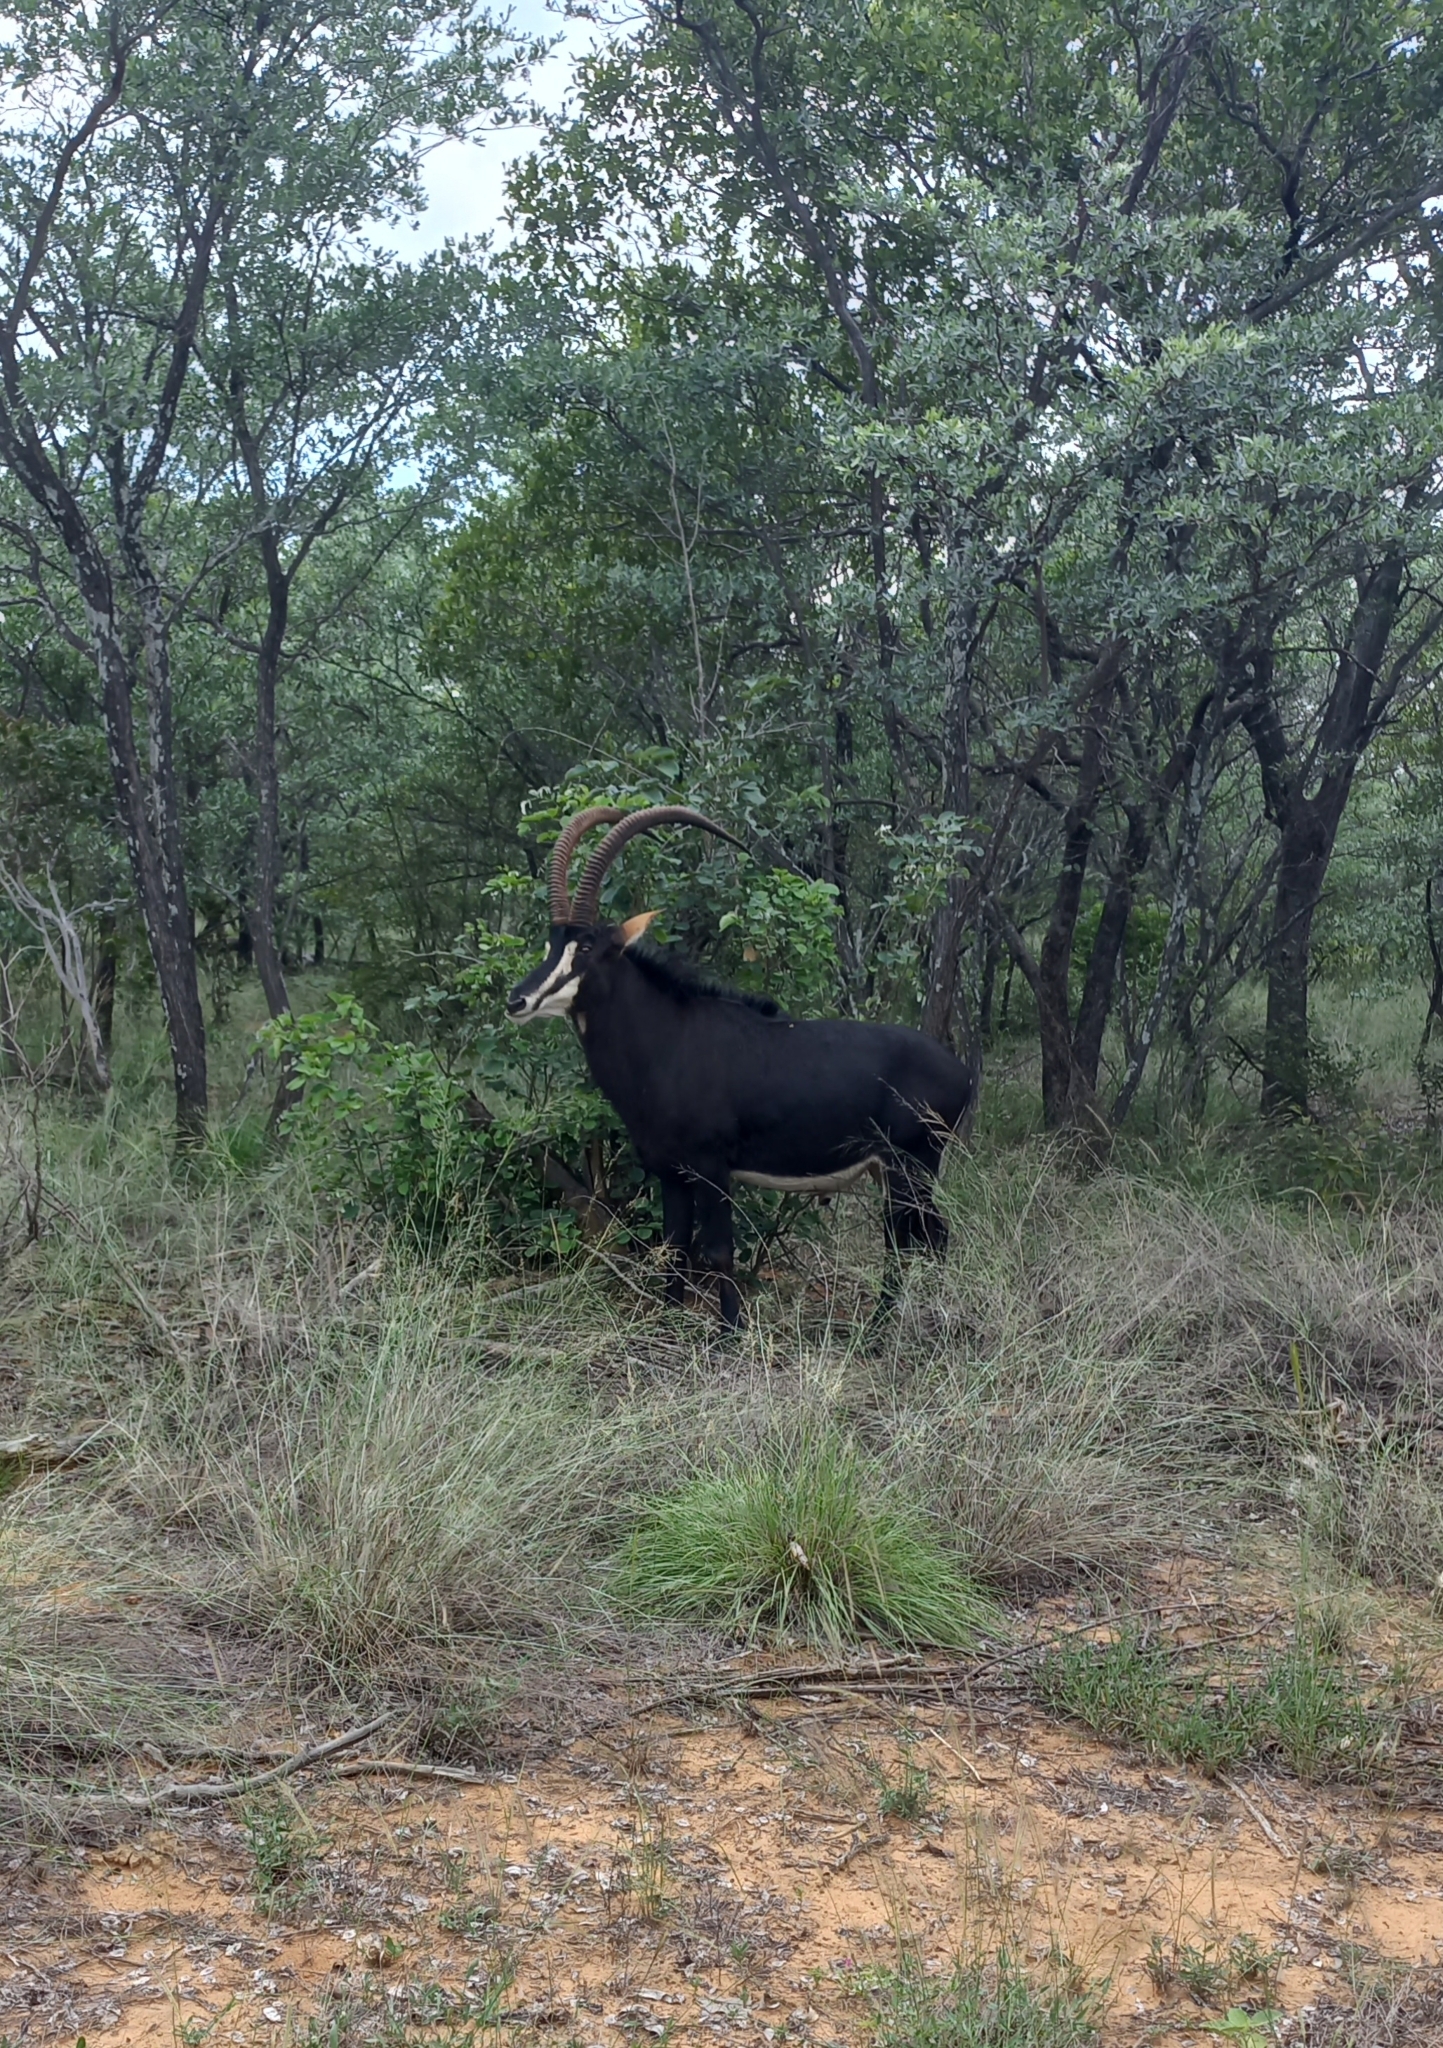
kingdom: Animalia
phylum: Chordata
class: Mammalia
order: Artiodactyla
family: Bovidae
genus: Hippotragus
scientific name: Hippotragus niger
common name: Sable antelope
